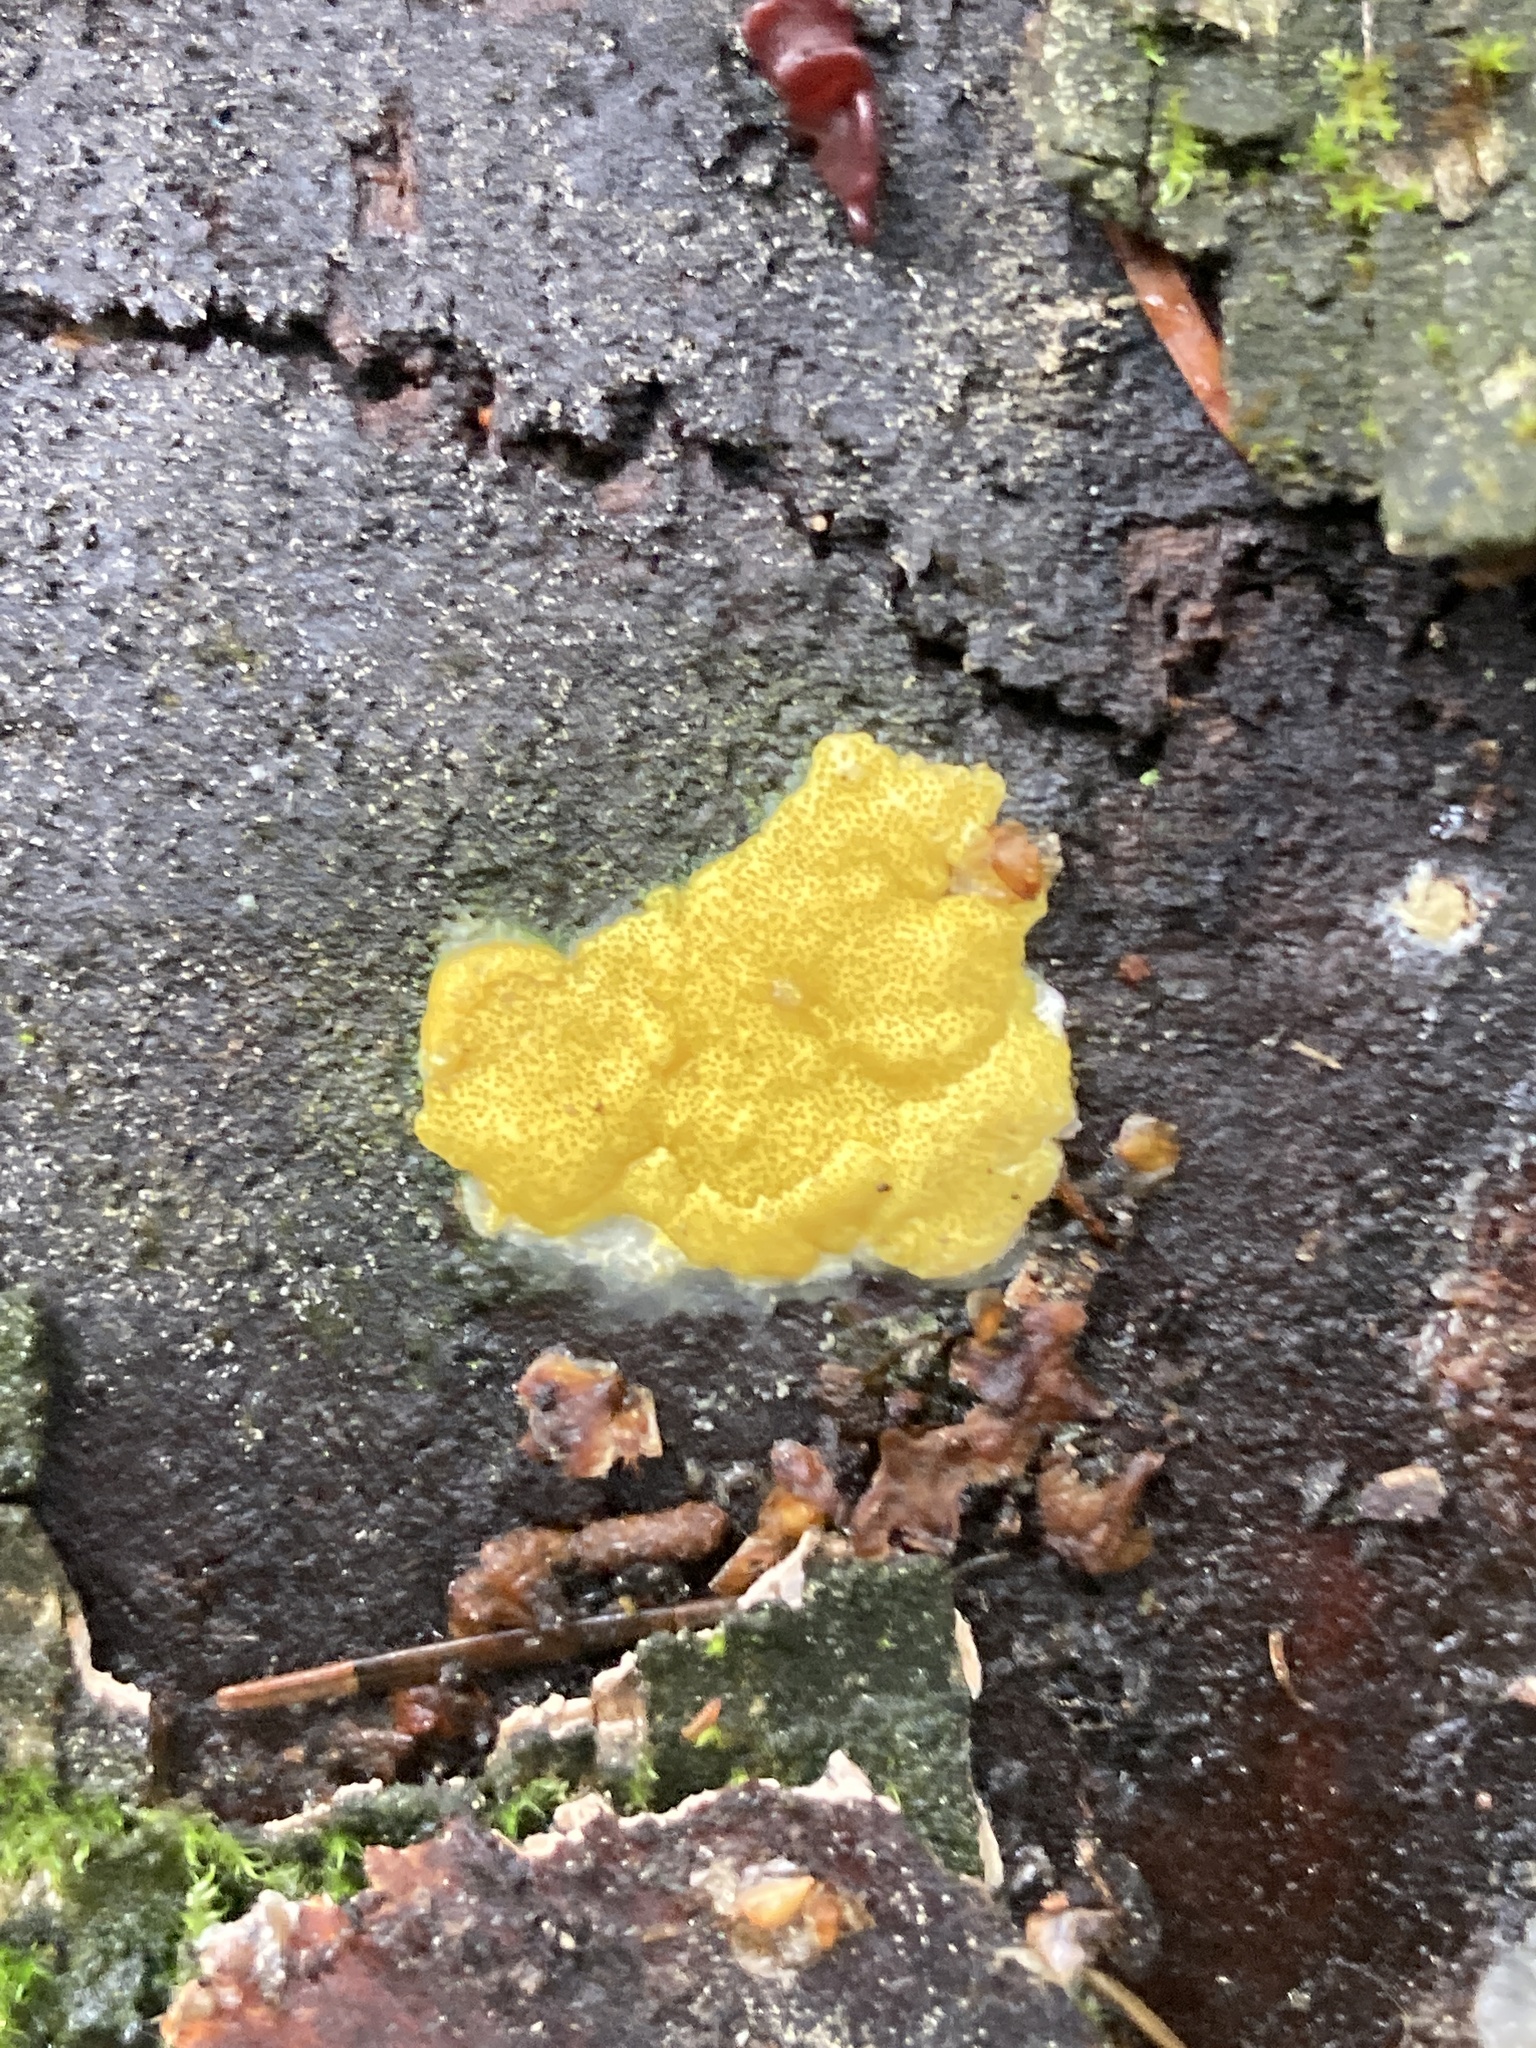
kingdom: Fungi
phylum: Ascomycota
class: Sordariomycetes
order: Hypocreales
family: Hypocreaceae
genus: Trichoderma
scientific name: Trichoderma sulphureum
